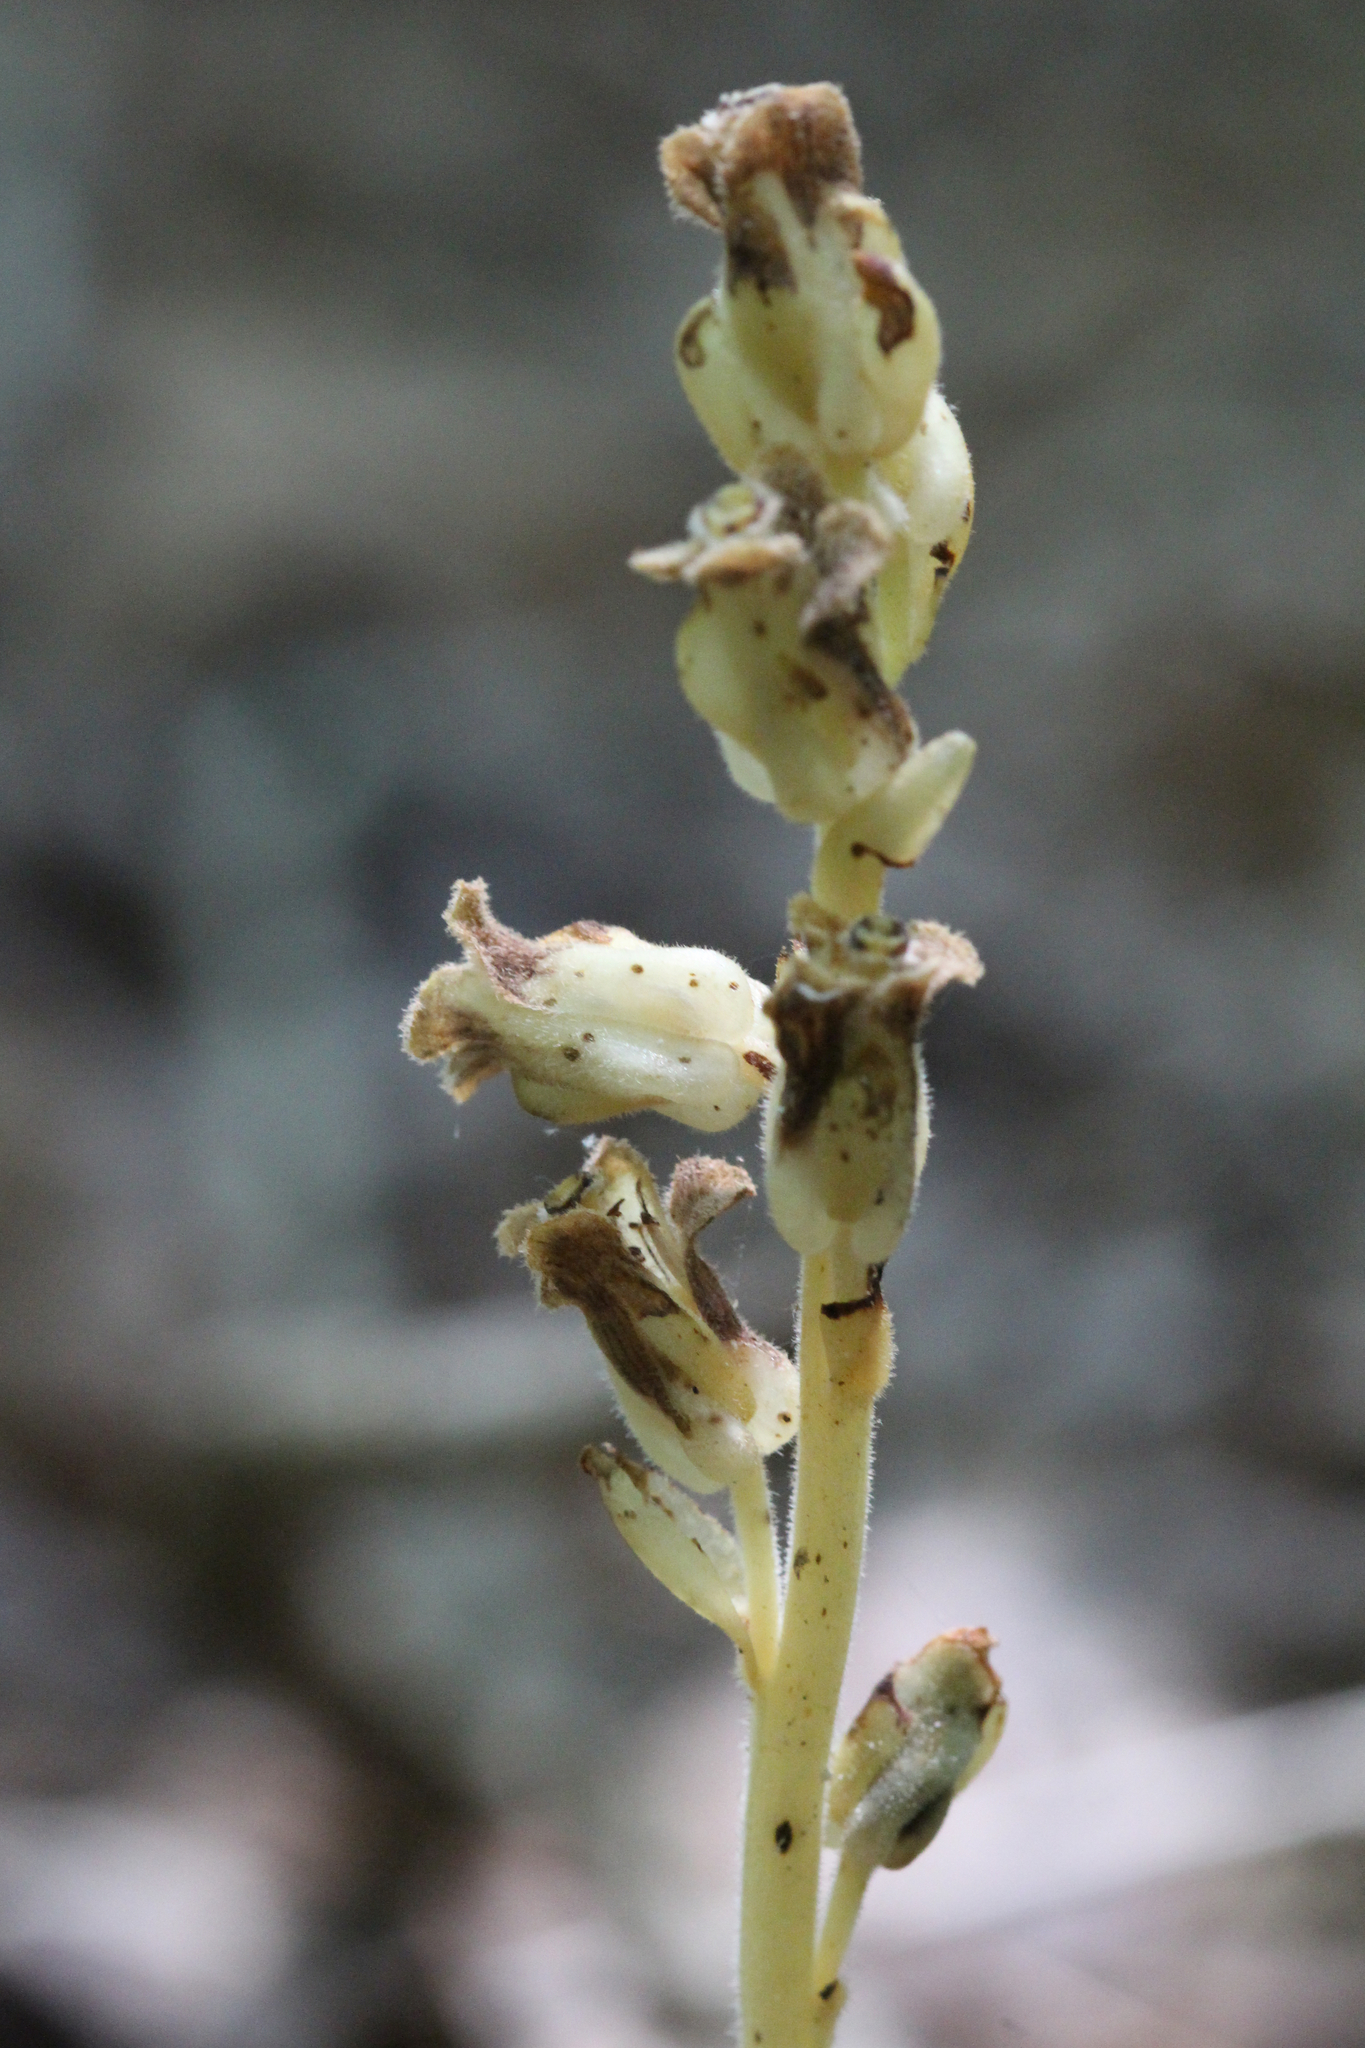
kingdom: Plantae
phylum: Tracheophyta
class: Magnoliopsida
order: Ericales
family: Ericaceae
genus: Hypopitys
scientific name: Hypopitys monotropa
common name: Yellow bird's-nest
